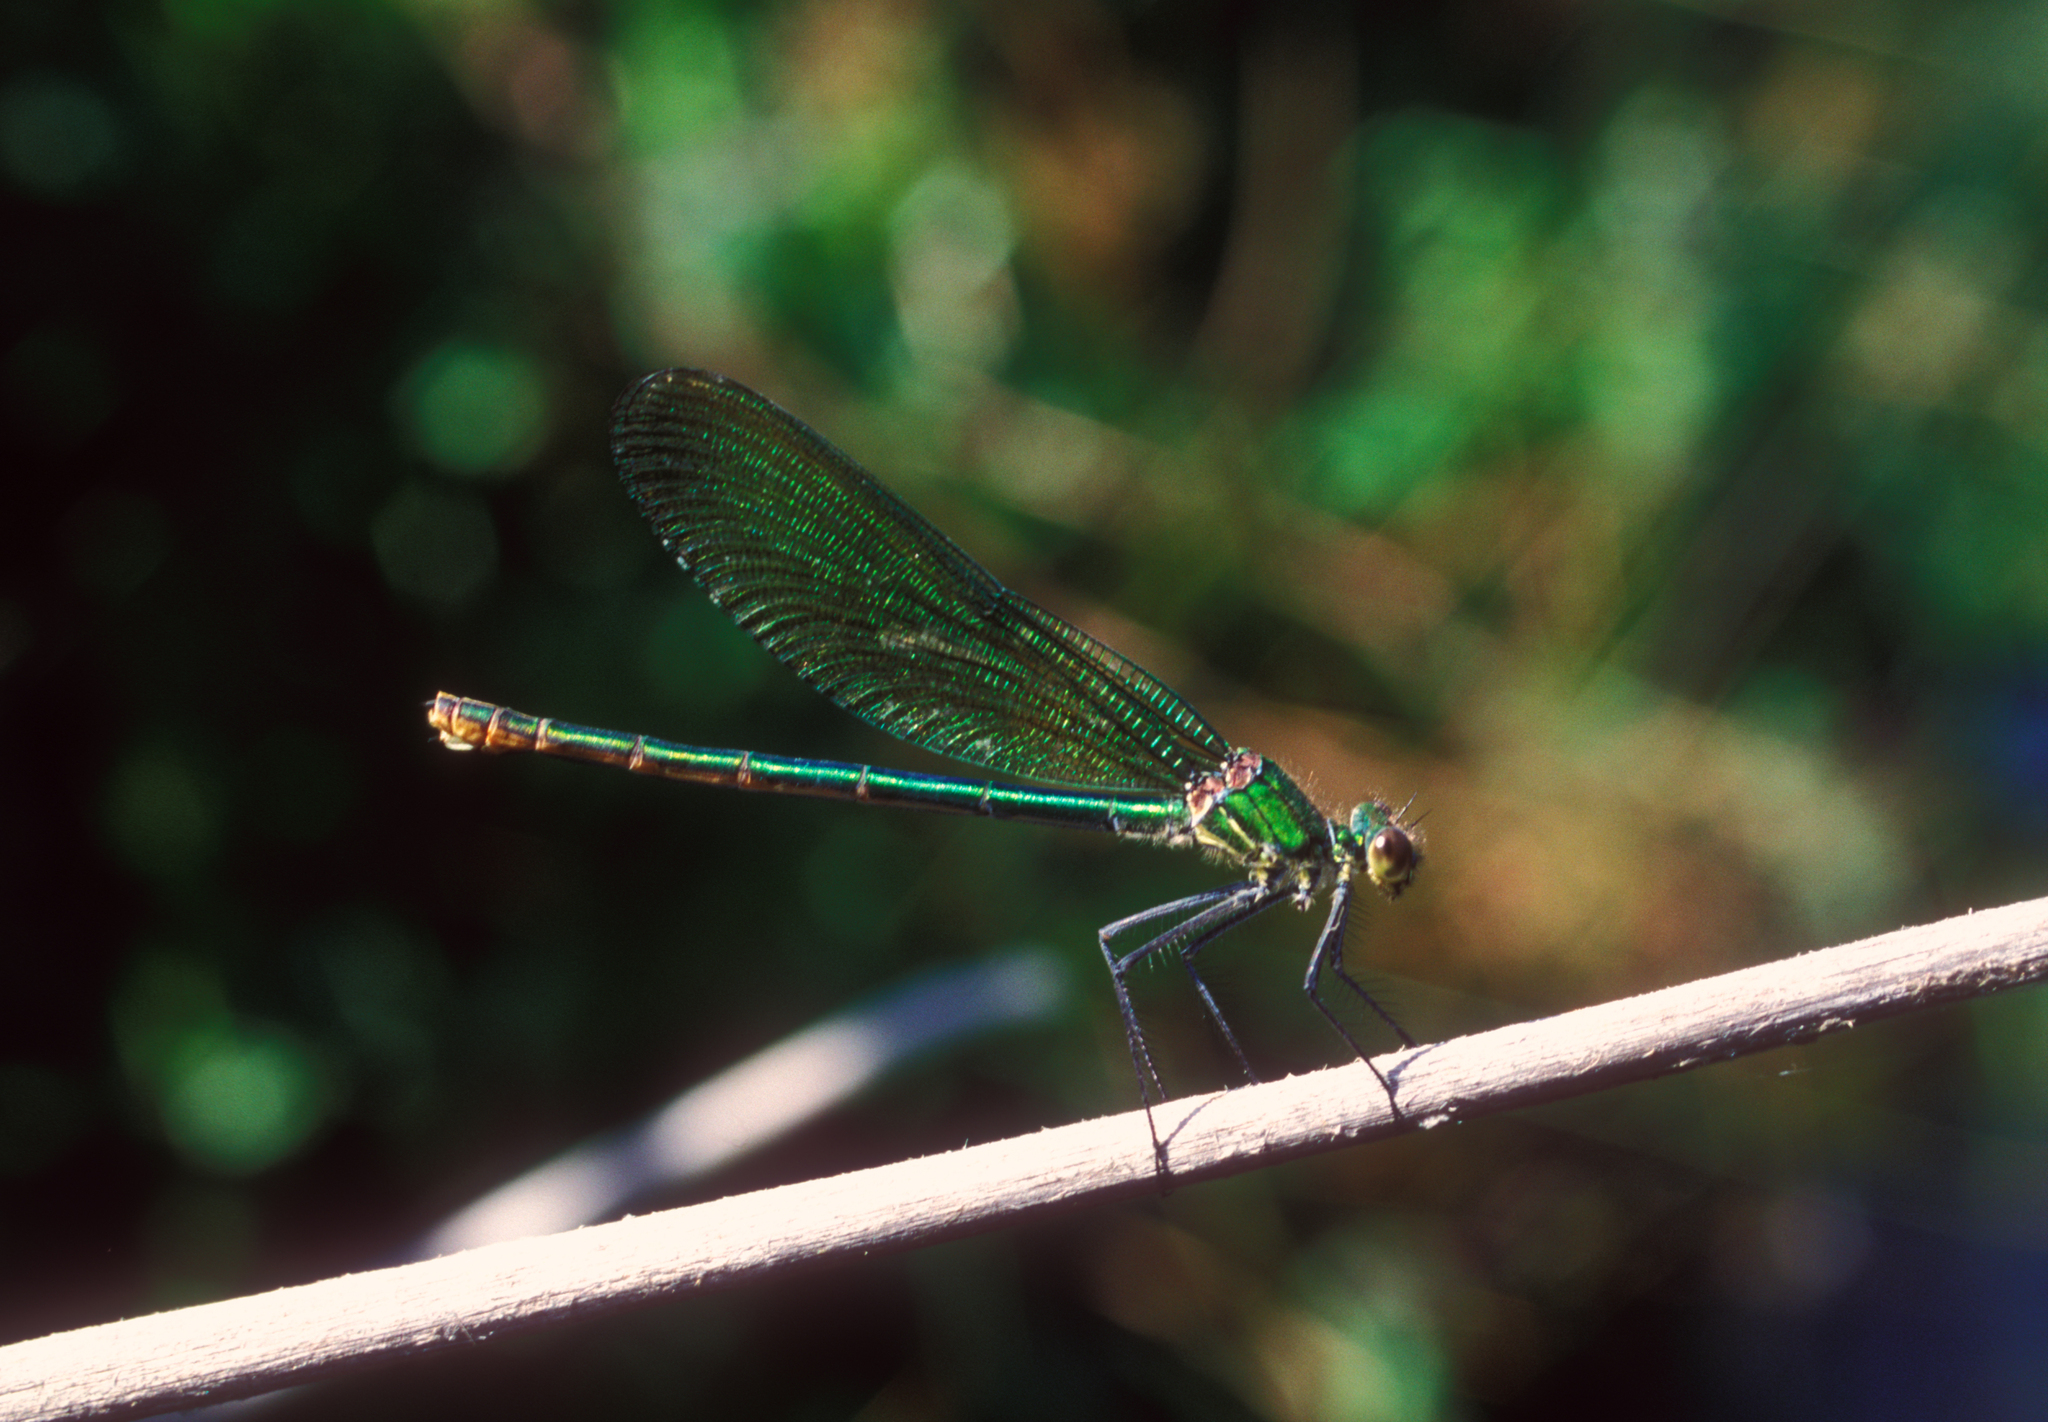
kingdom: Animalia
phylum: Arthropoda
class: Insecta
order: Odonata
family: Calopterygidae
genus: Calopteryx
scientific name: Calopteryx splendens
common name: Banded demoiselle
